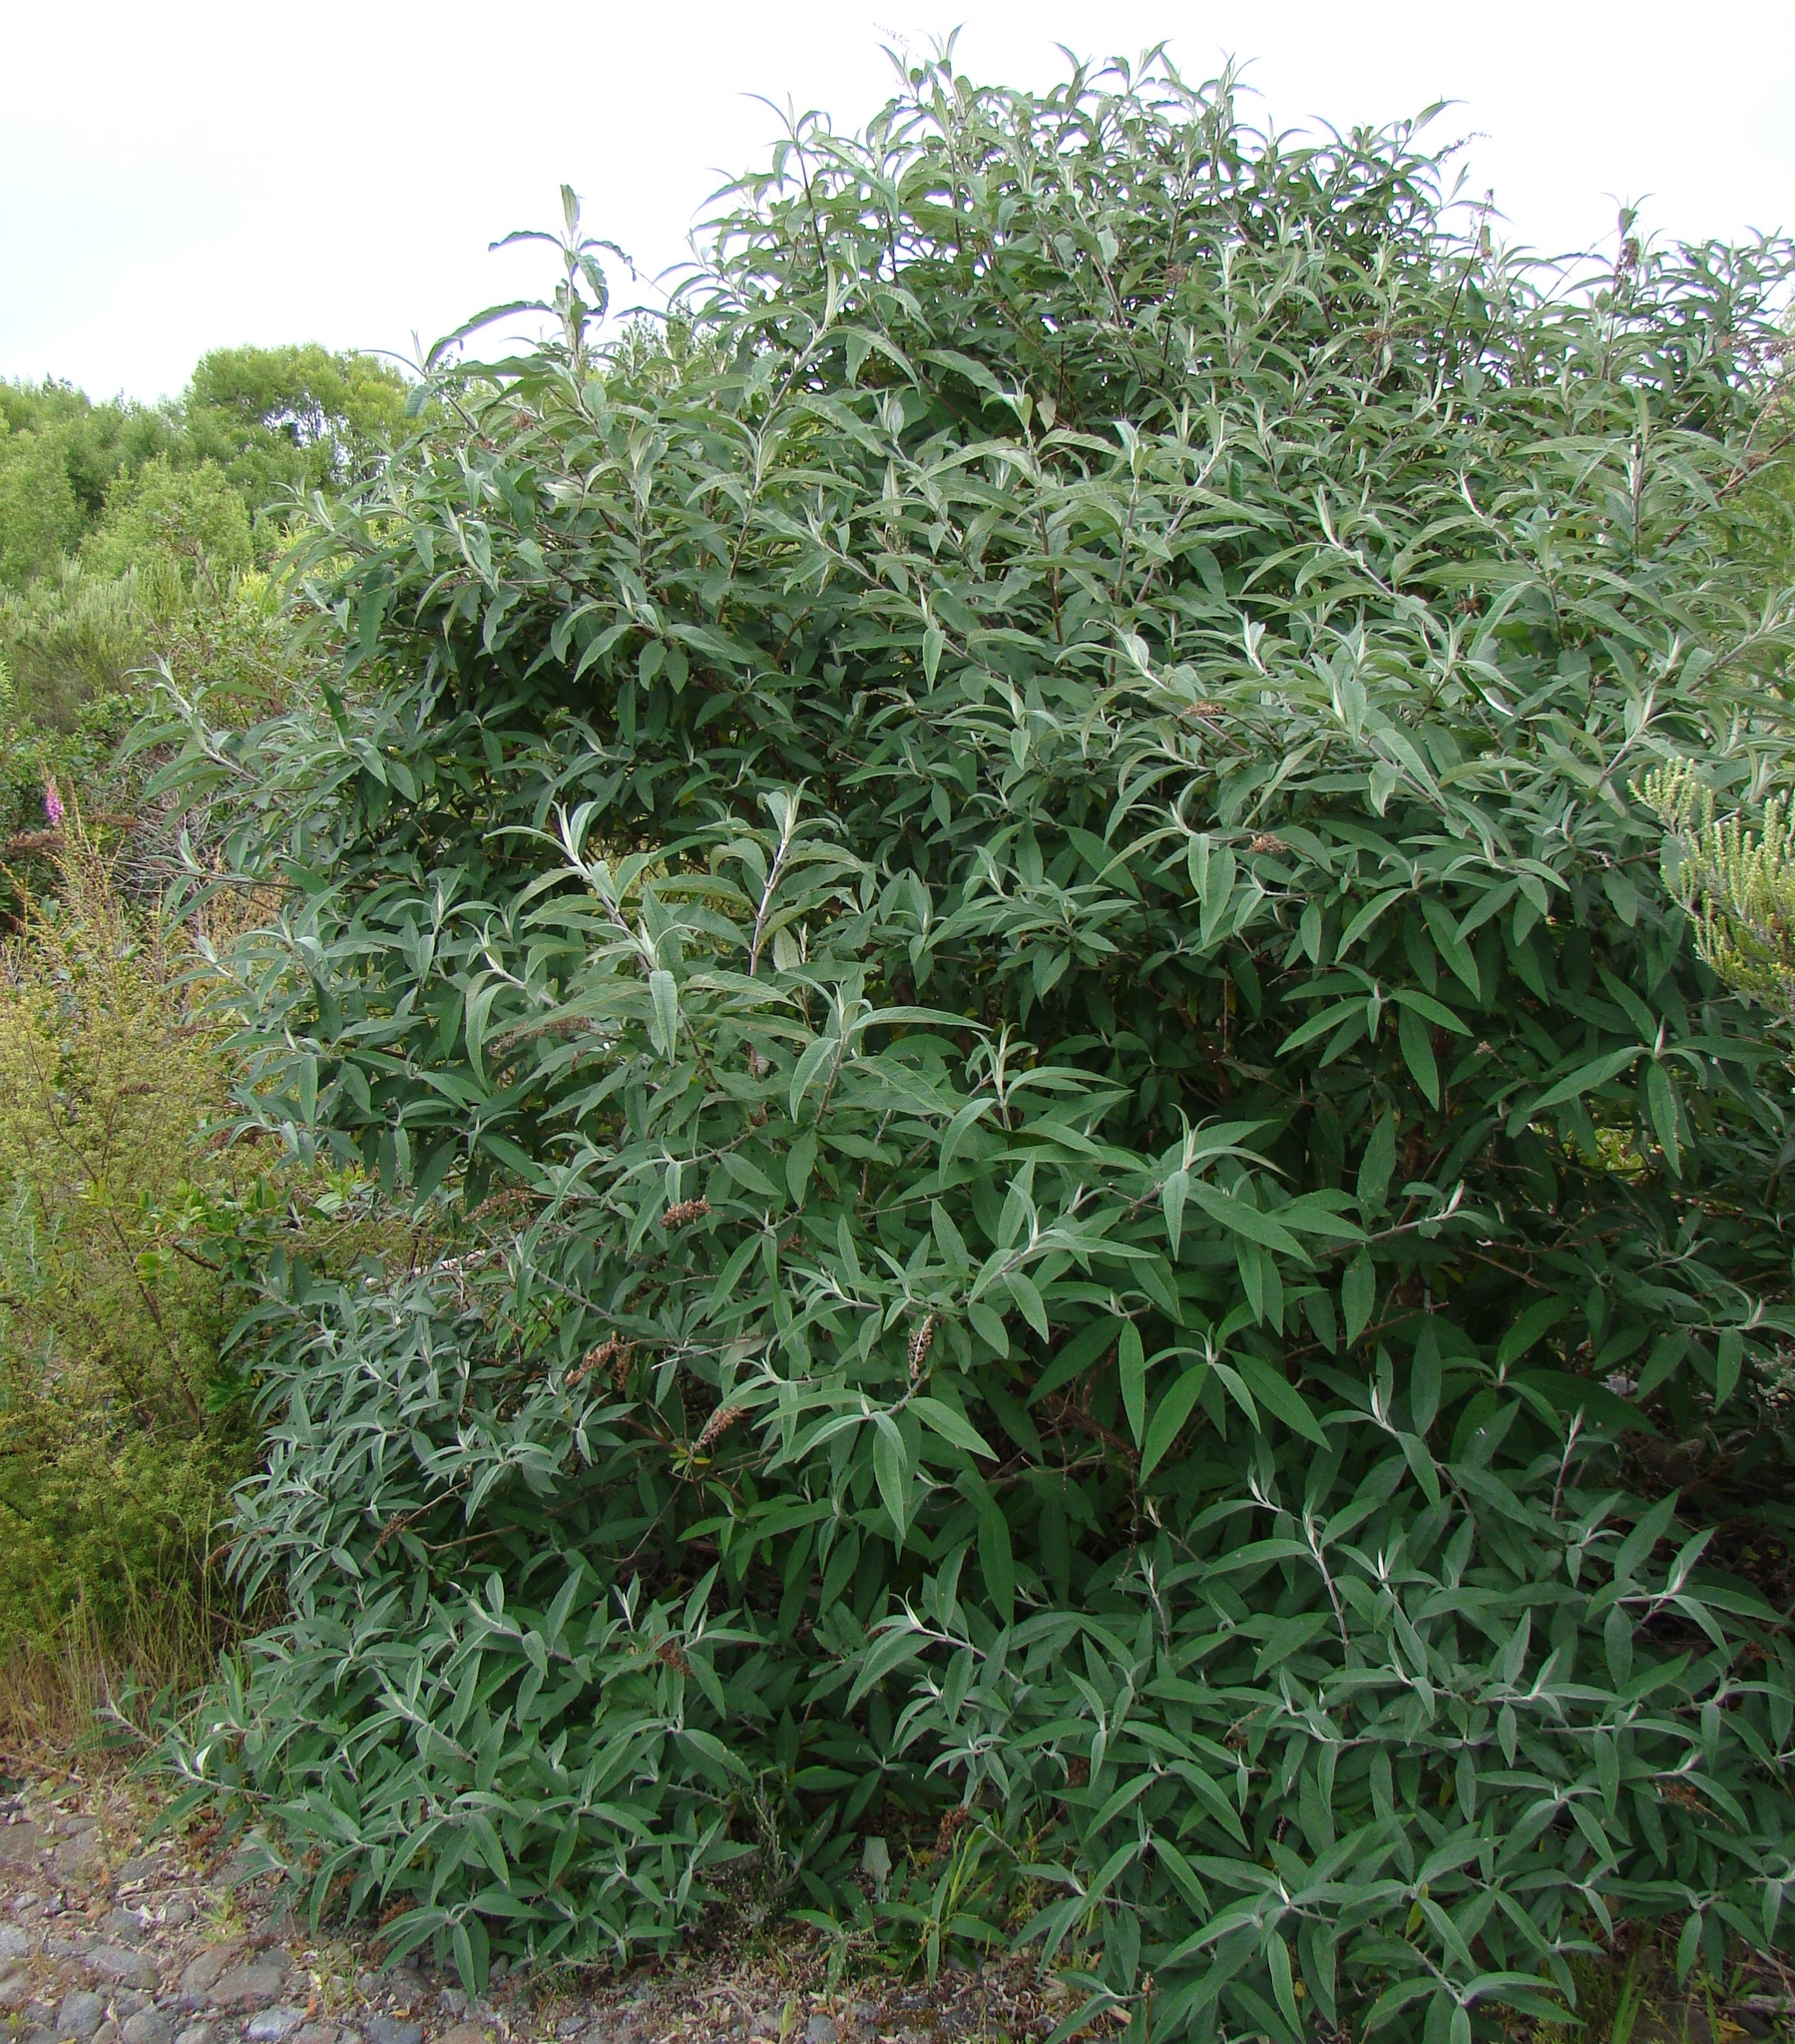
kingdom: Plantae
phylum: Tracheophyta
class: Magnoliopsida
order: Lamiales
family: Scrophulariaceae
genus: Buddleja
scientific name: Buddleja davidii
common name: Butterfly-bush
